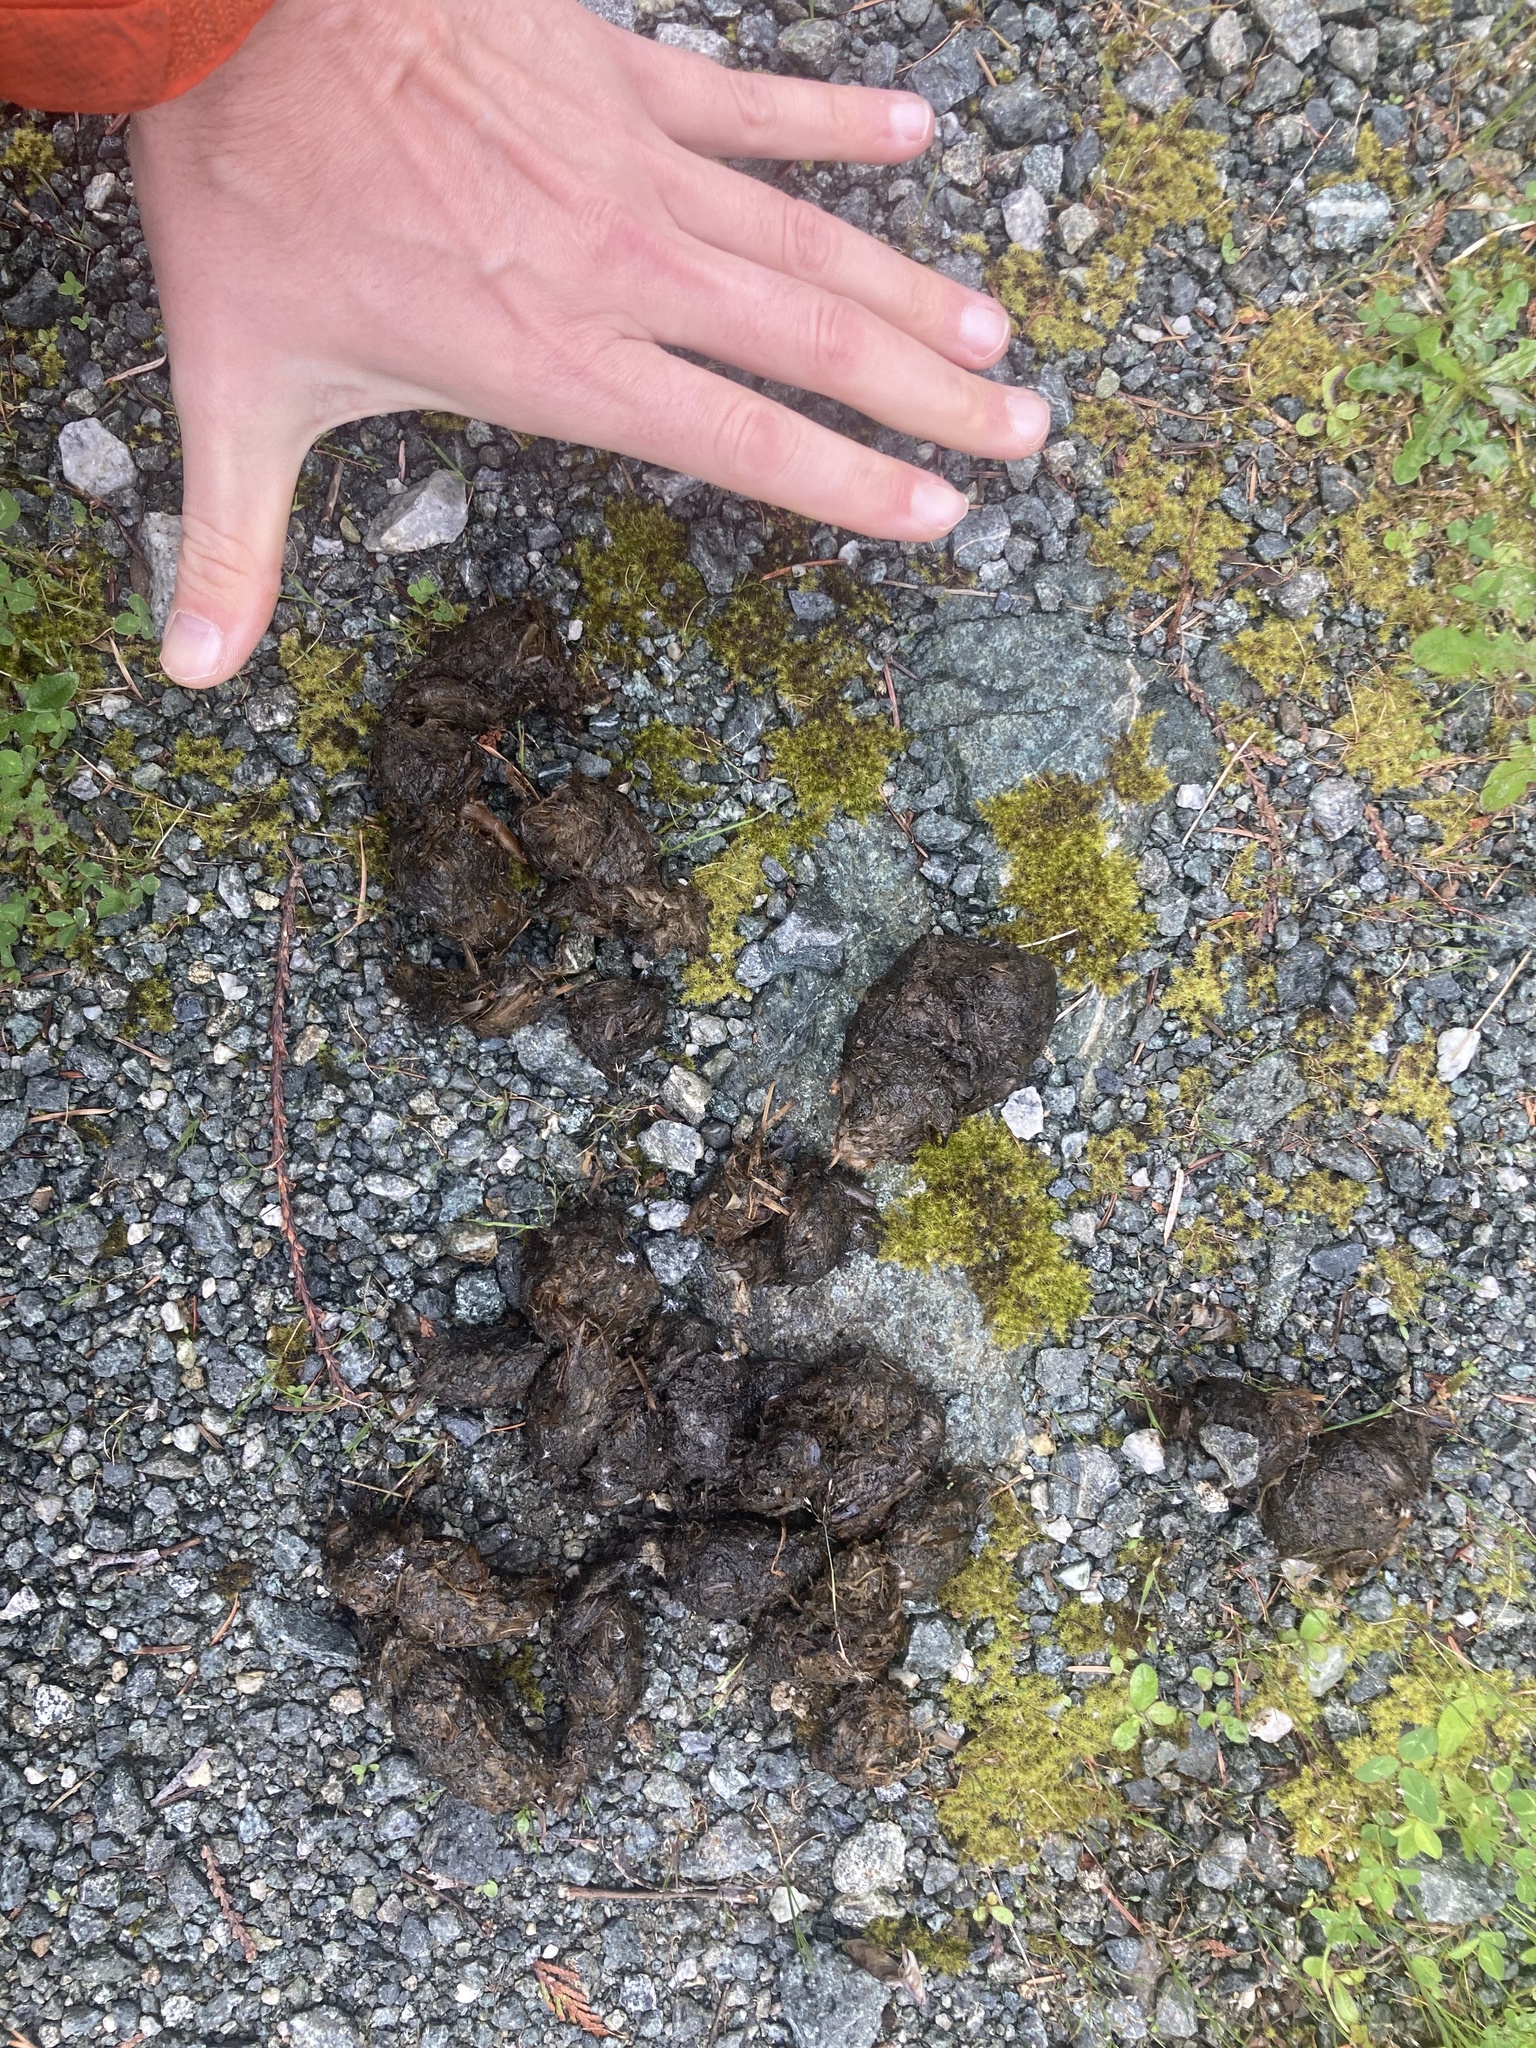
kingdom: Animalia
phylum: Chordata
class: Mammalia
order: Carnivora
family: Ursidae
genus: Ursus
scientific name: Ursus americanus
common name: American black bear
